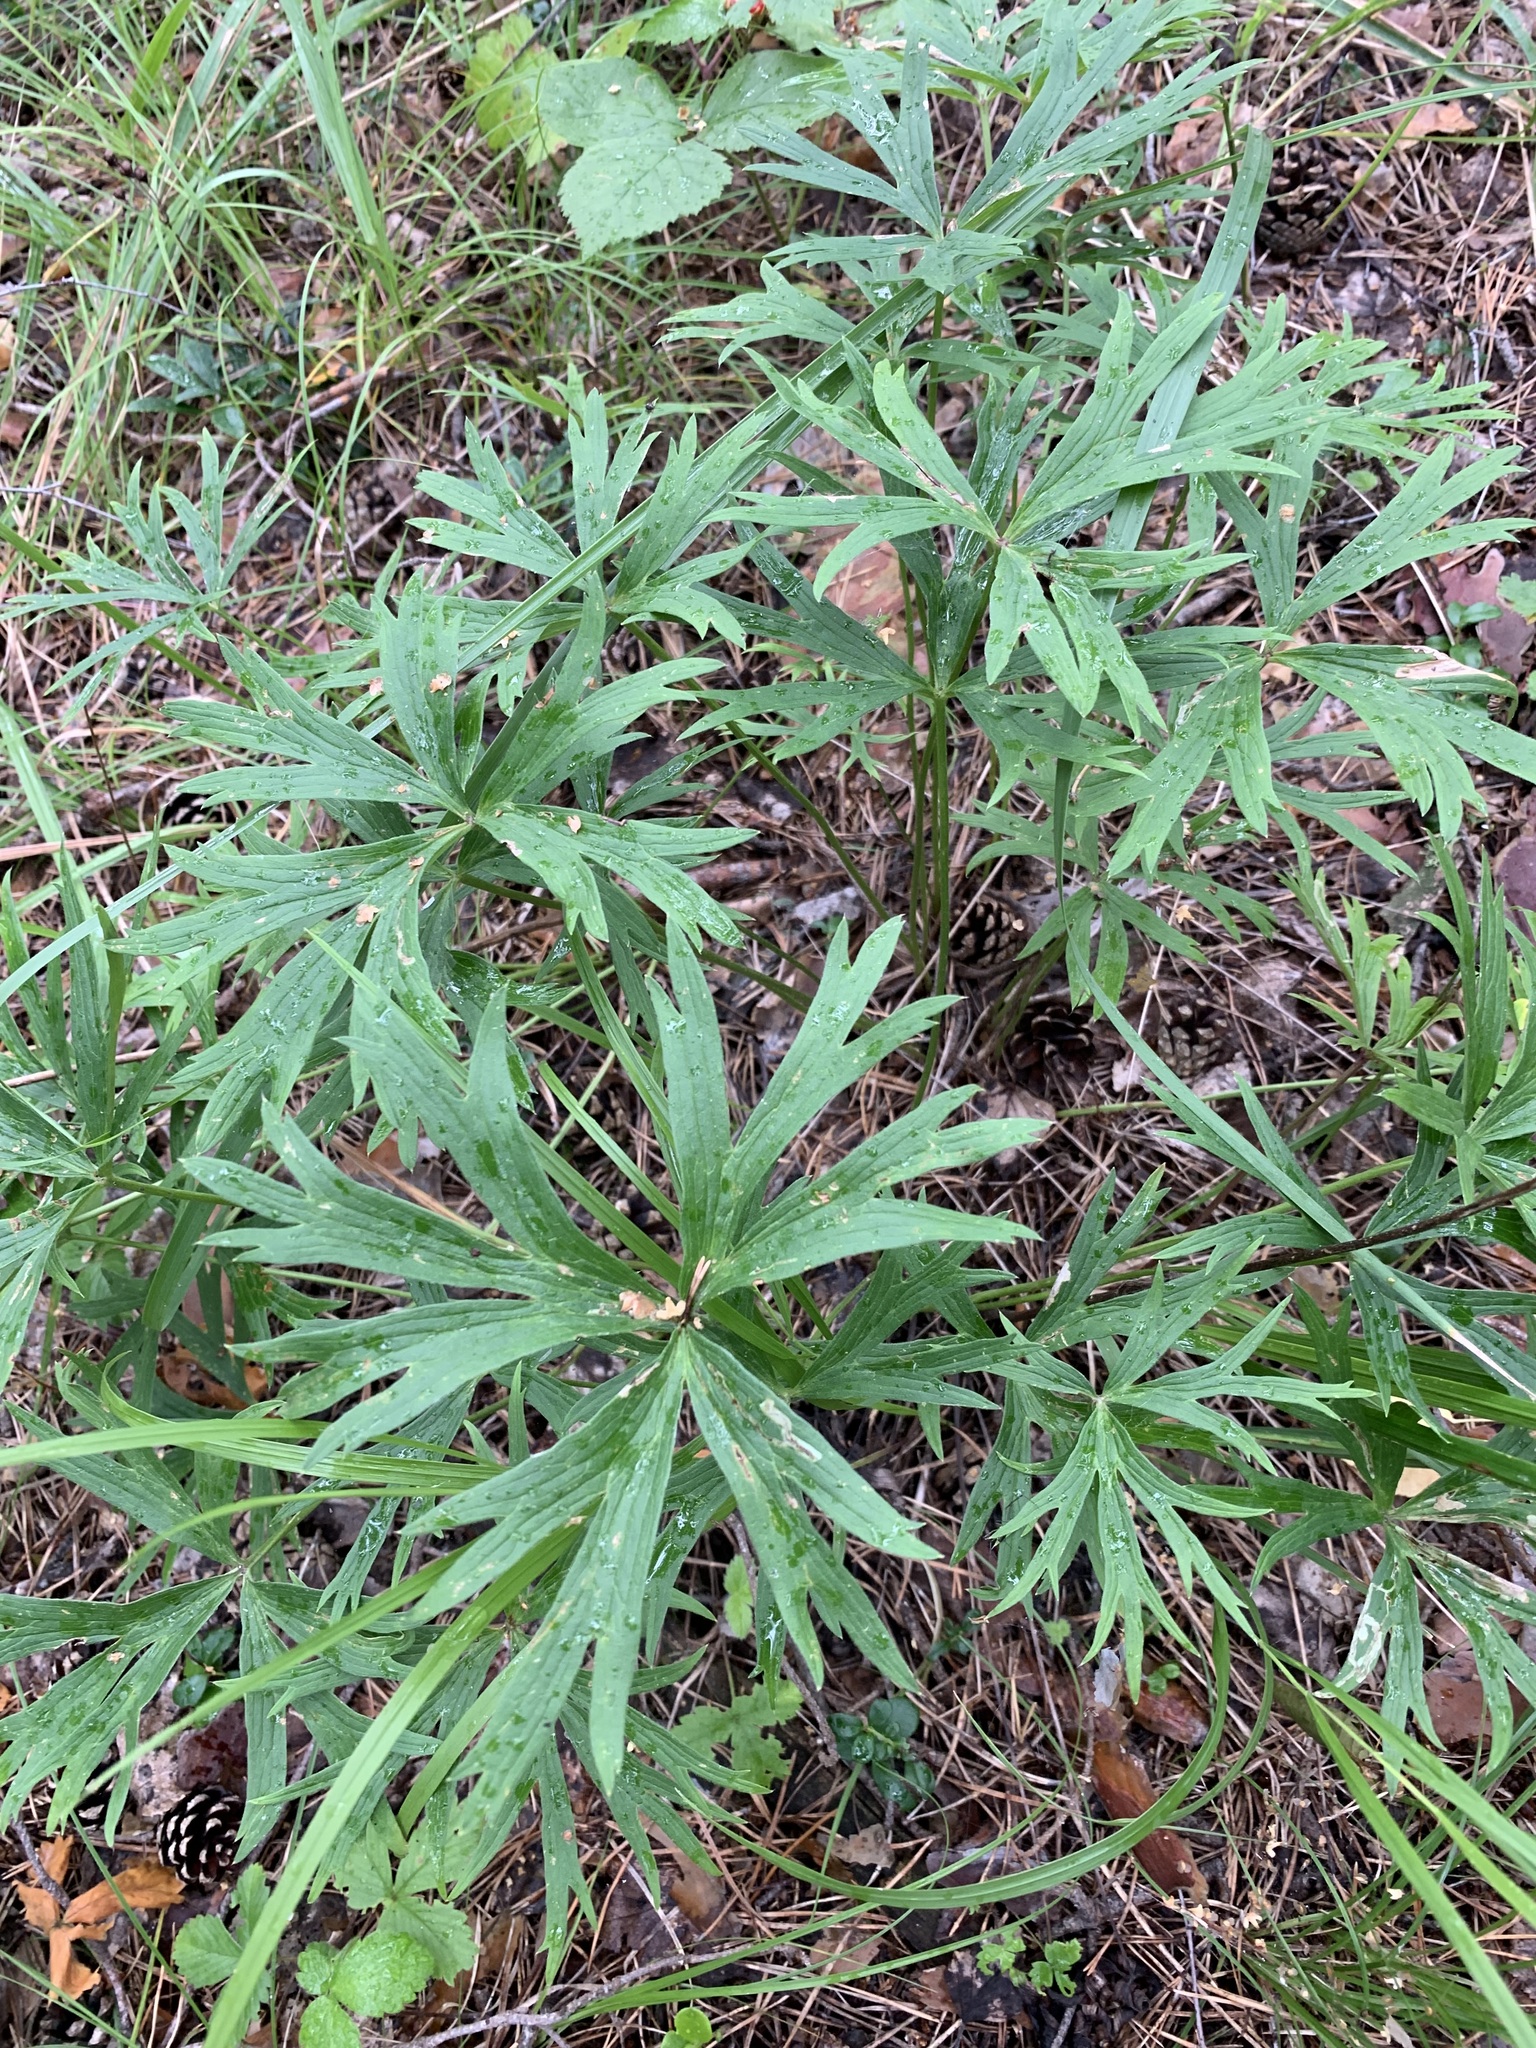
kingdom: Plantae
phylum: Tracheophyta
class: Magnoliopsida
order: Ranunculales
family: Ranunculaceae
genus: Pulsatilla
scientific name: Pulsatilla patens
